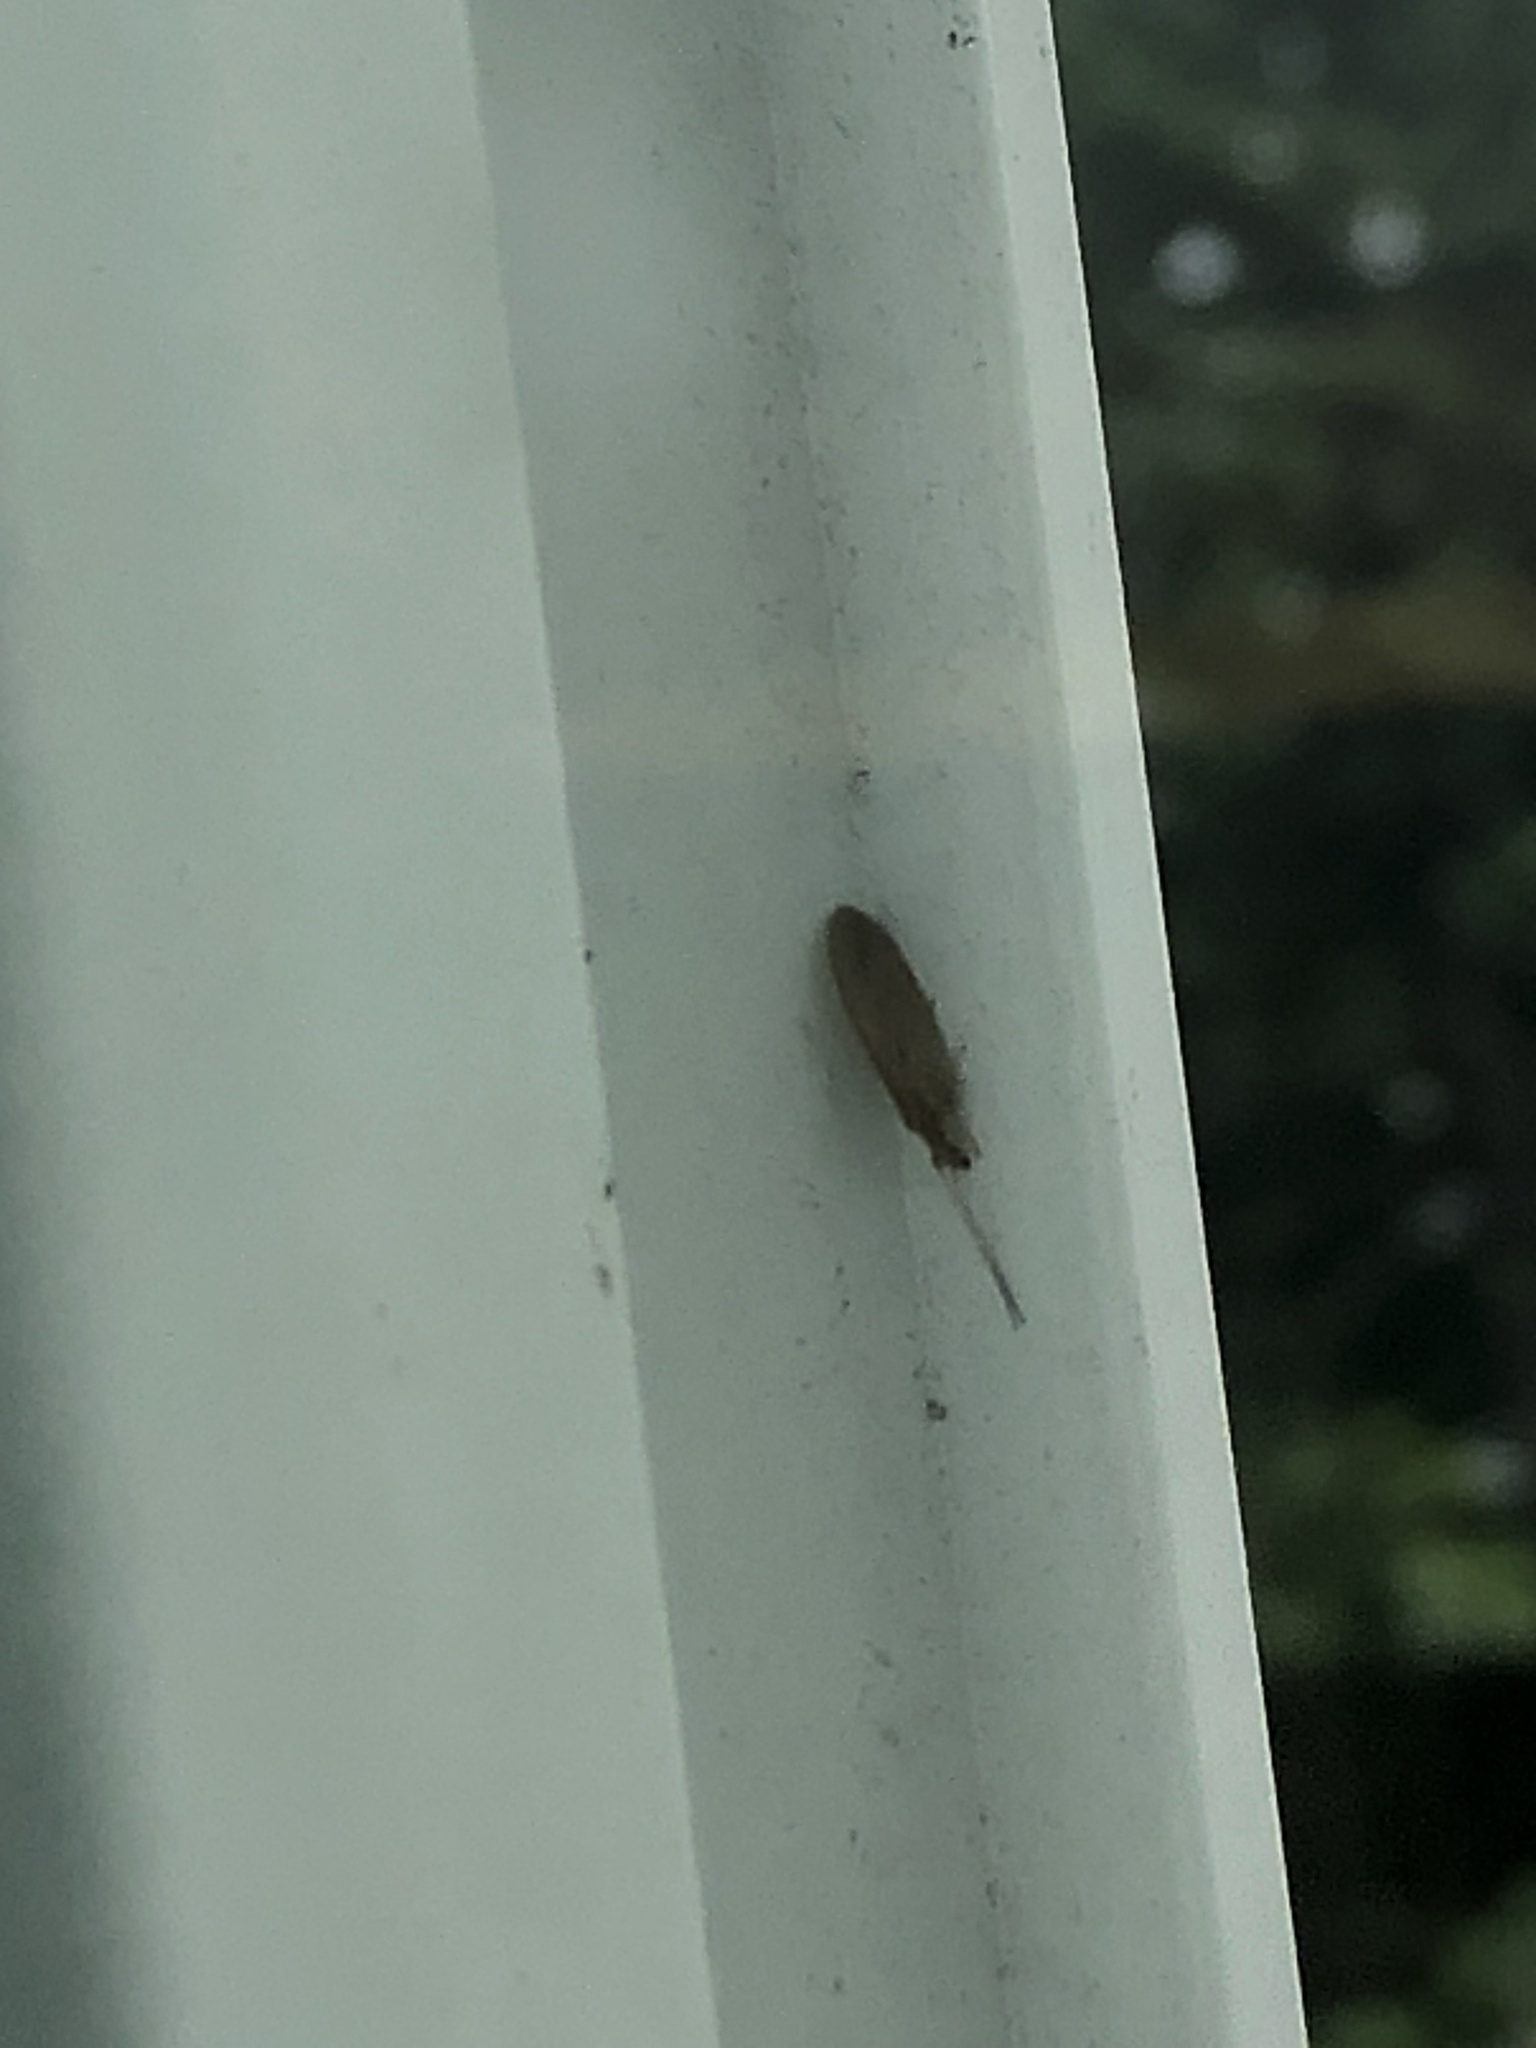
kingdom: Animalia
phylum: Arthropoda
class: Insecta
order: Neuroptera
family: Hemerobiidae
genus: Micromus
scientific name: Micromus subanticus
